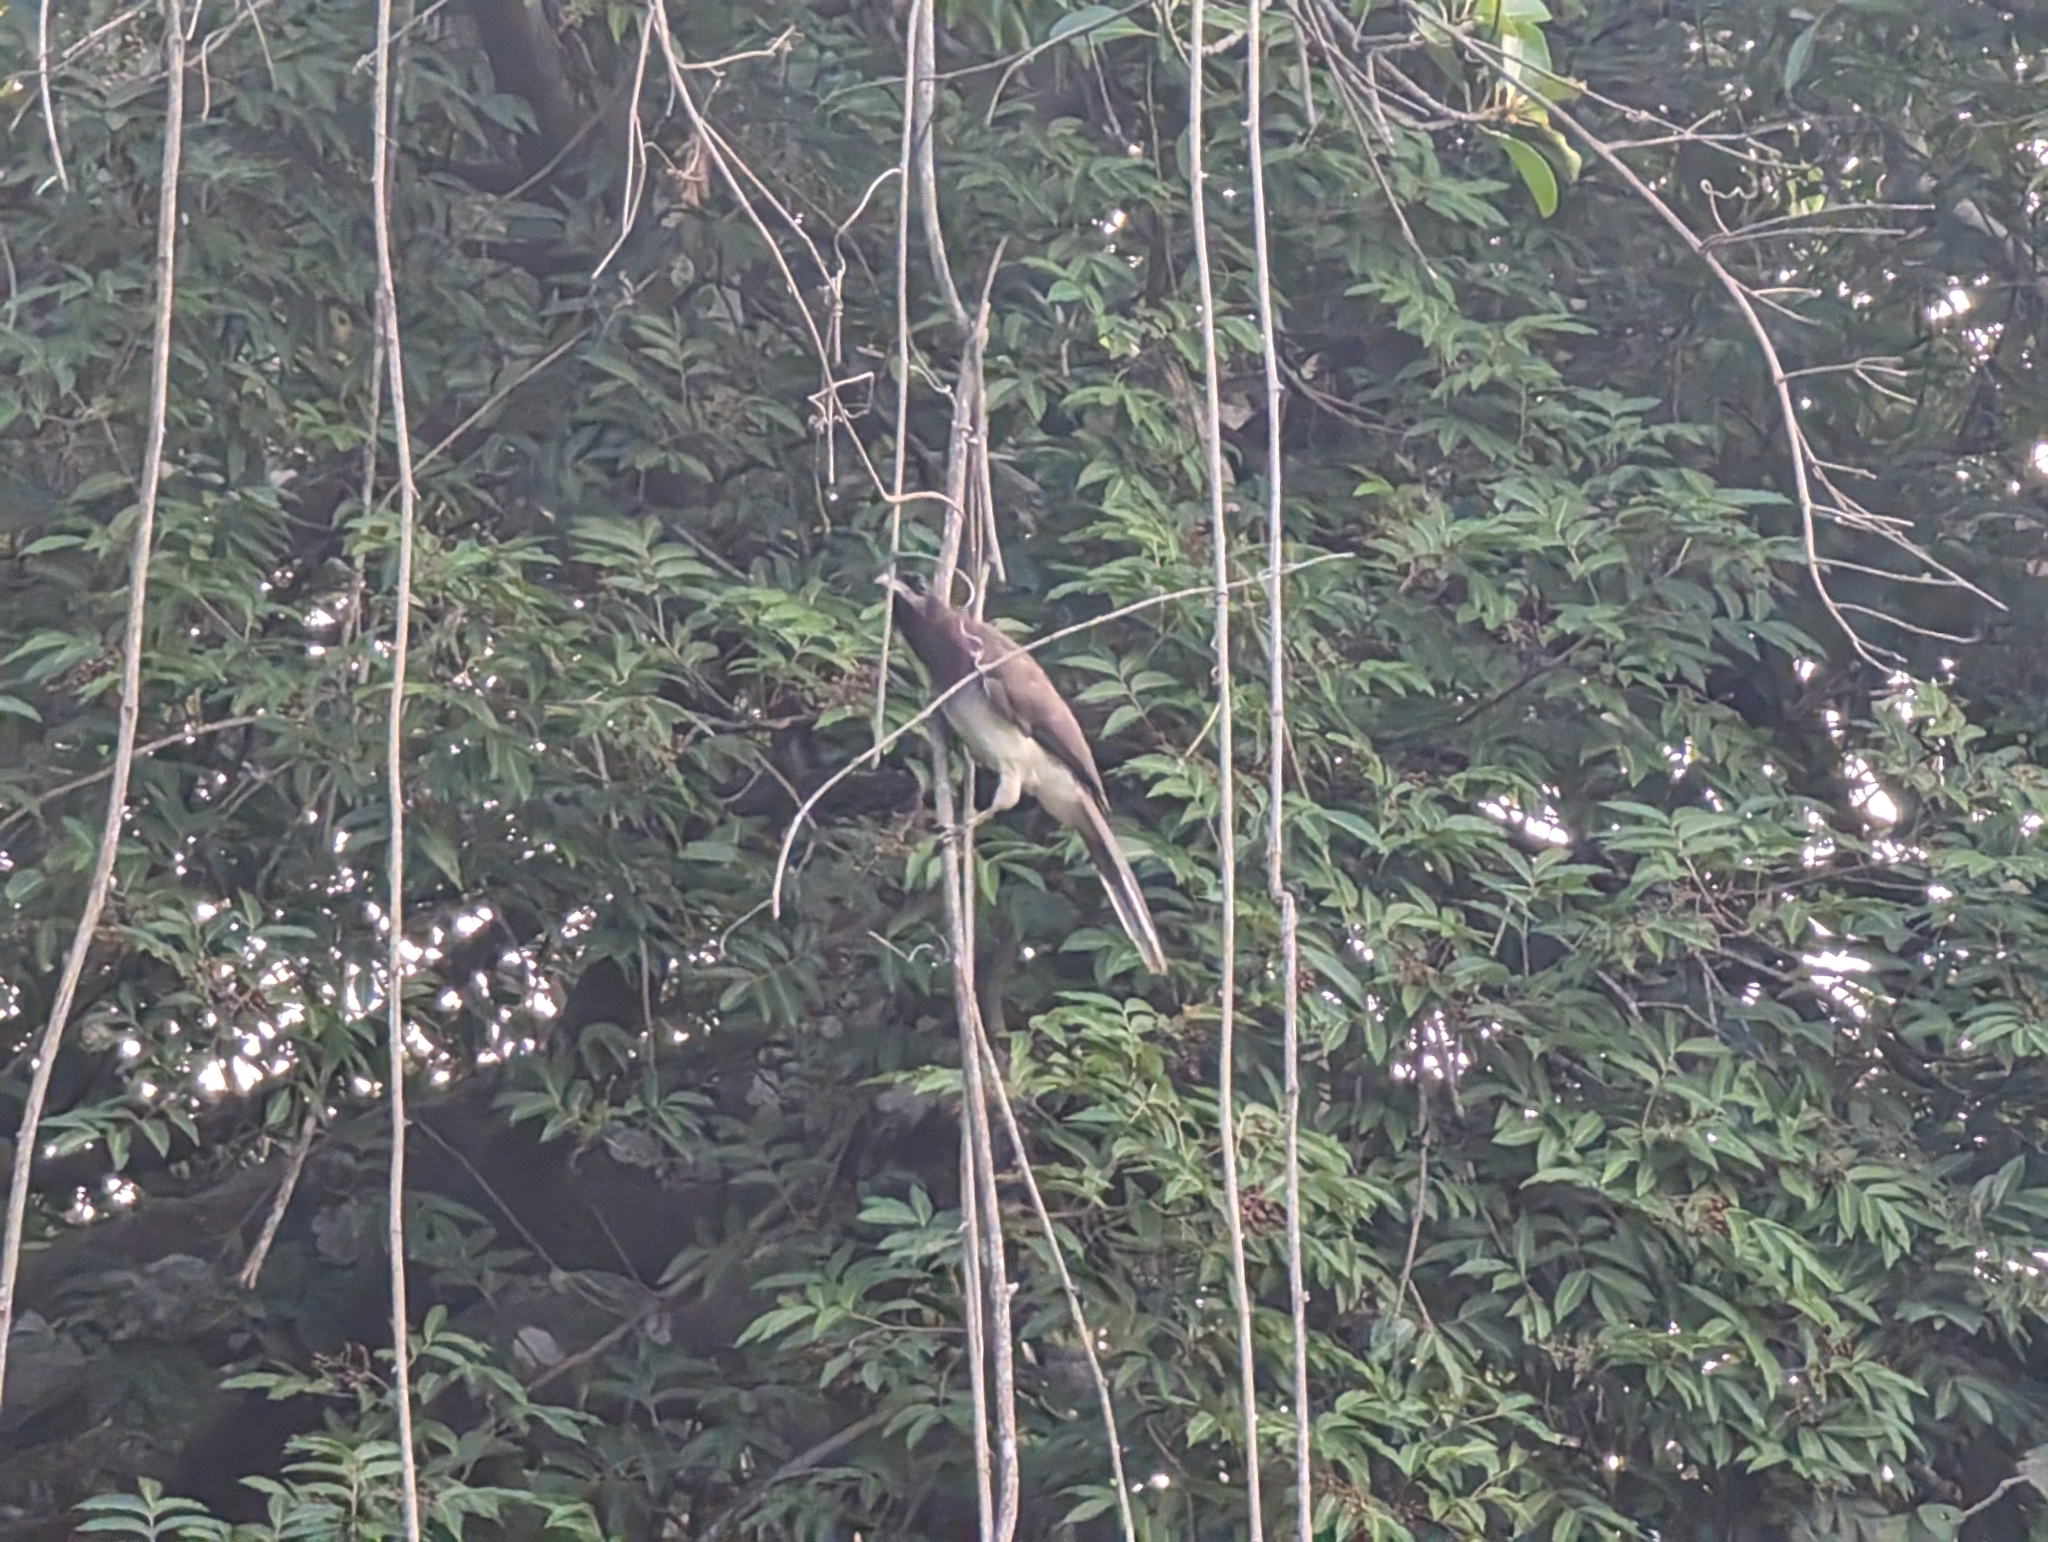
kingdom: Animalia
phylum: Chordata
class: Aves
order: Passeriformes
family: Corvidae
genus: Psilorhinus
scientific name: Psilorhinus morio
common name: Brown jay
